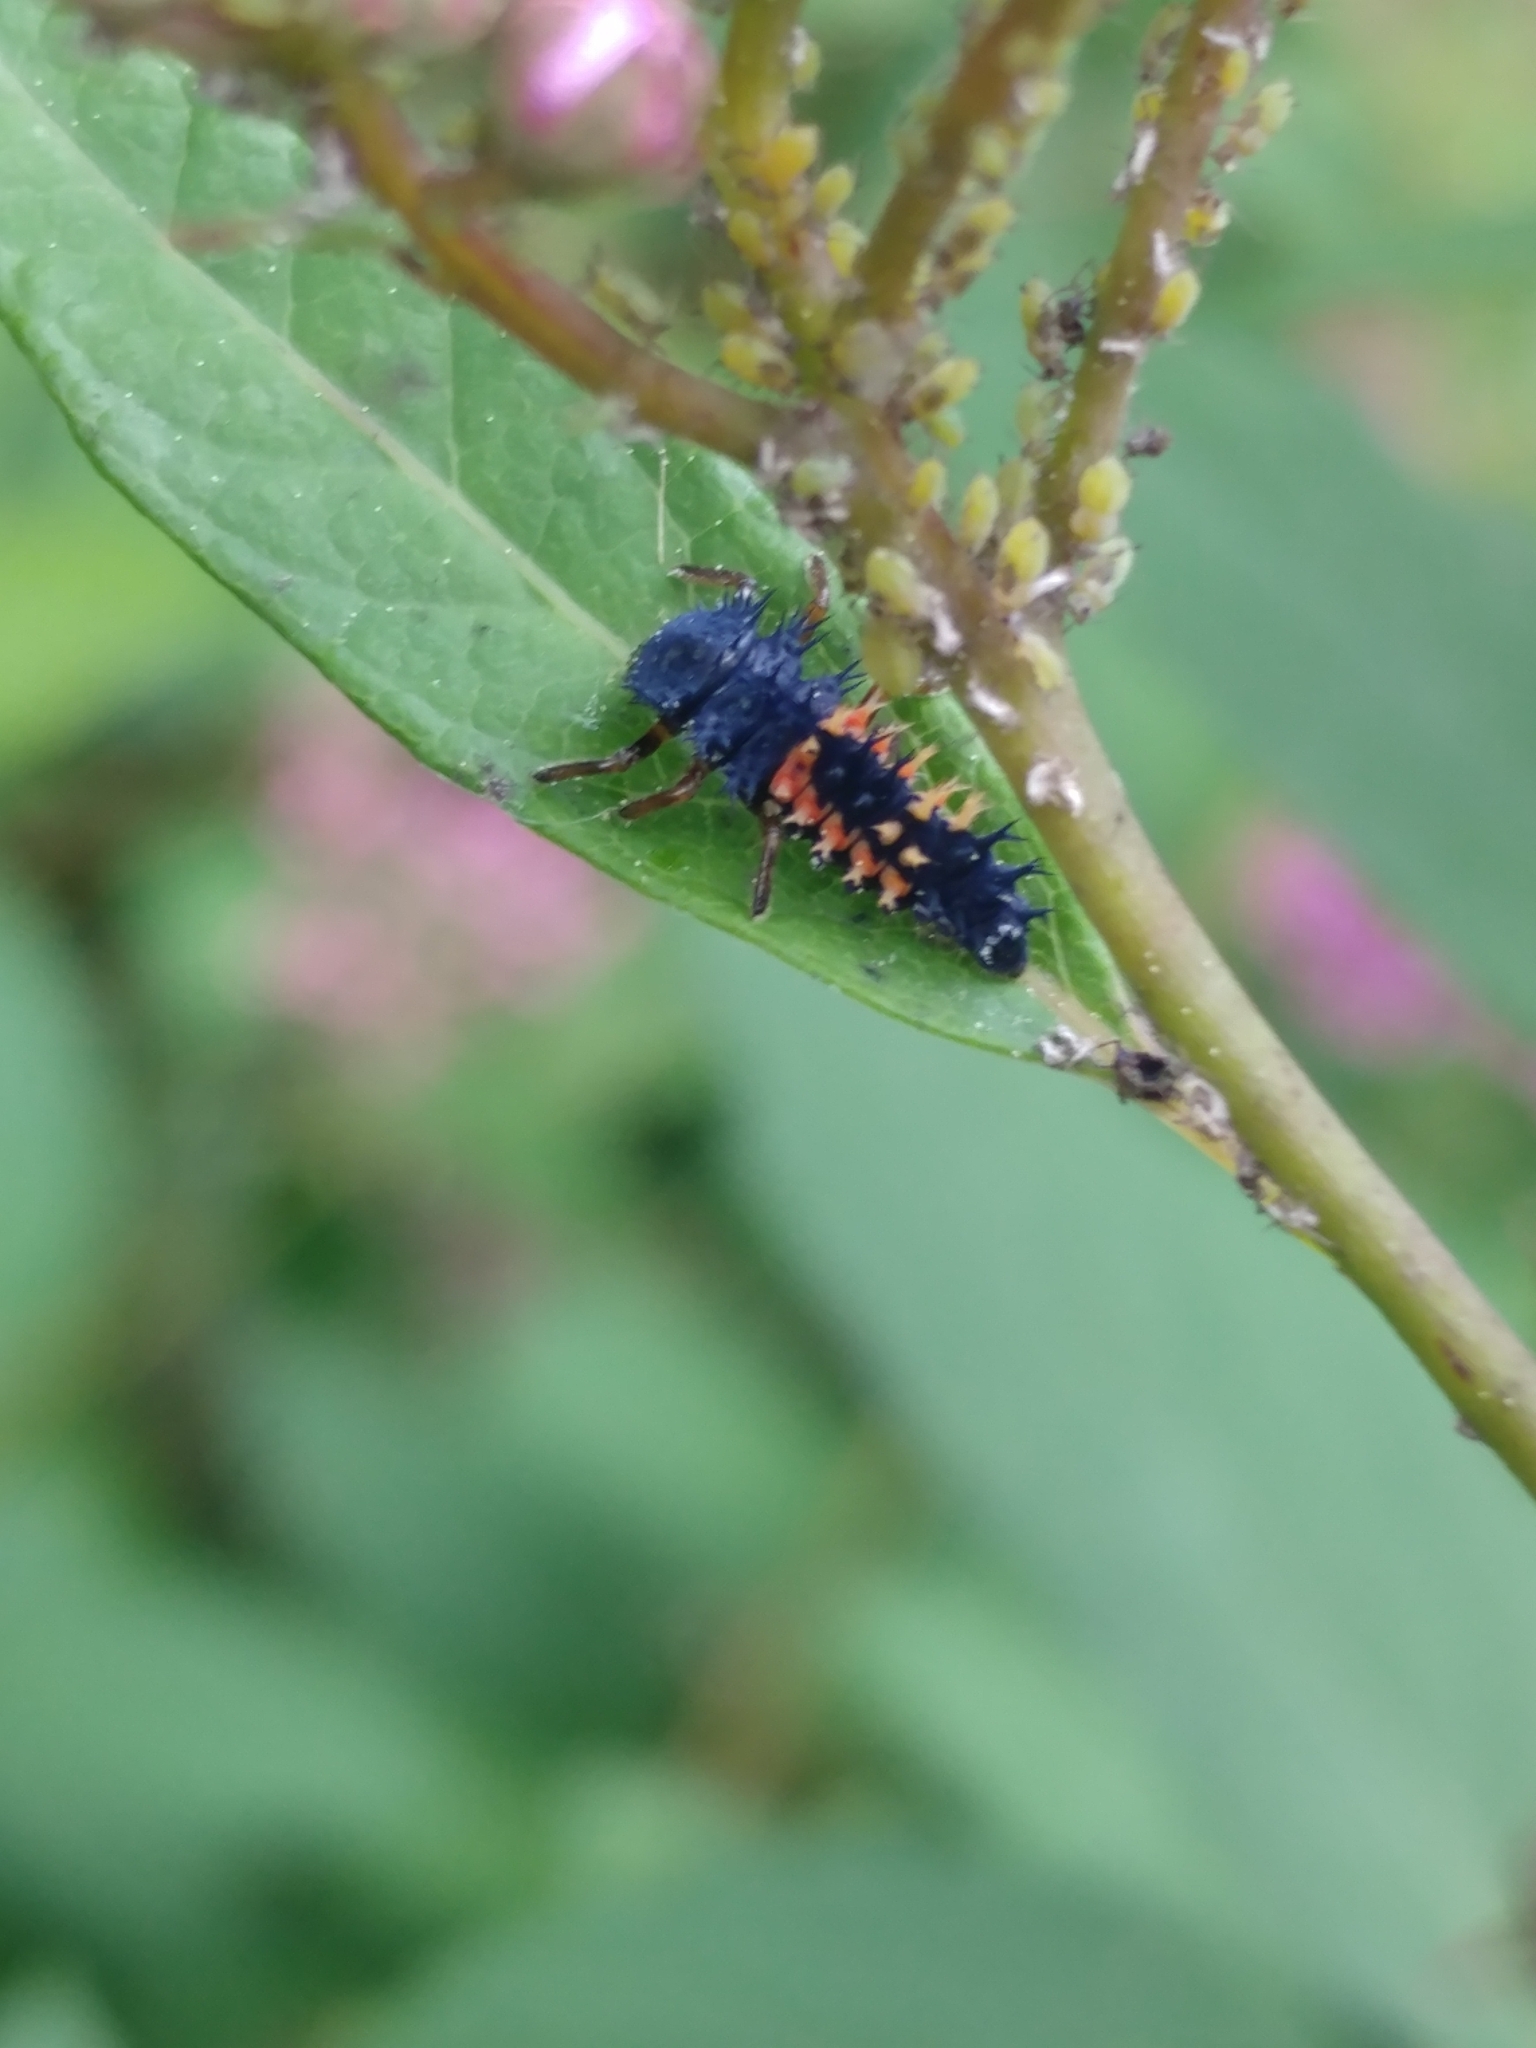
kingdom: Animalia
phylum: Arthropoda
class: Insecta
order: Coleoptera
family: Coccinellidae
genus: Harmonia
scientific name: Harmonia axyridis
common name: Harlequin ladybird
